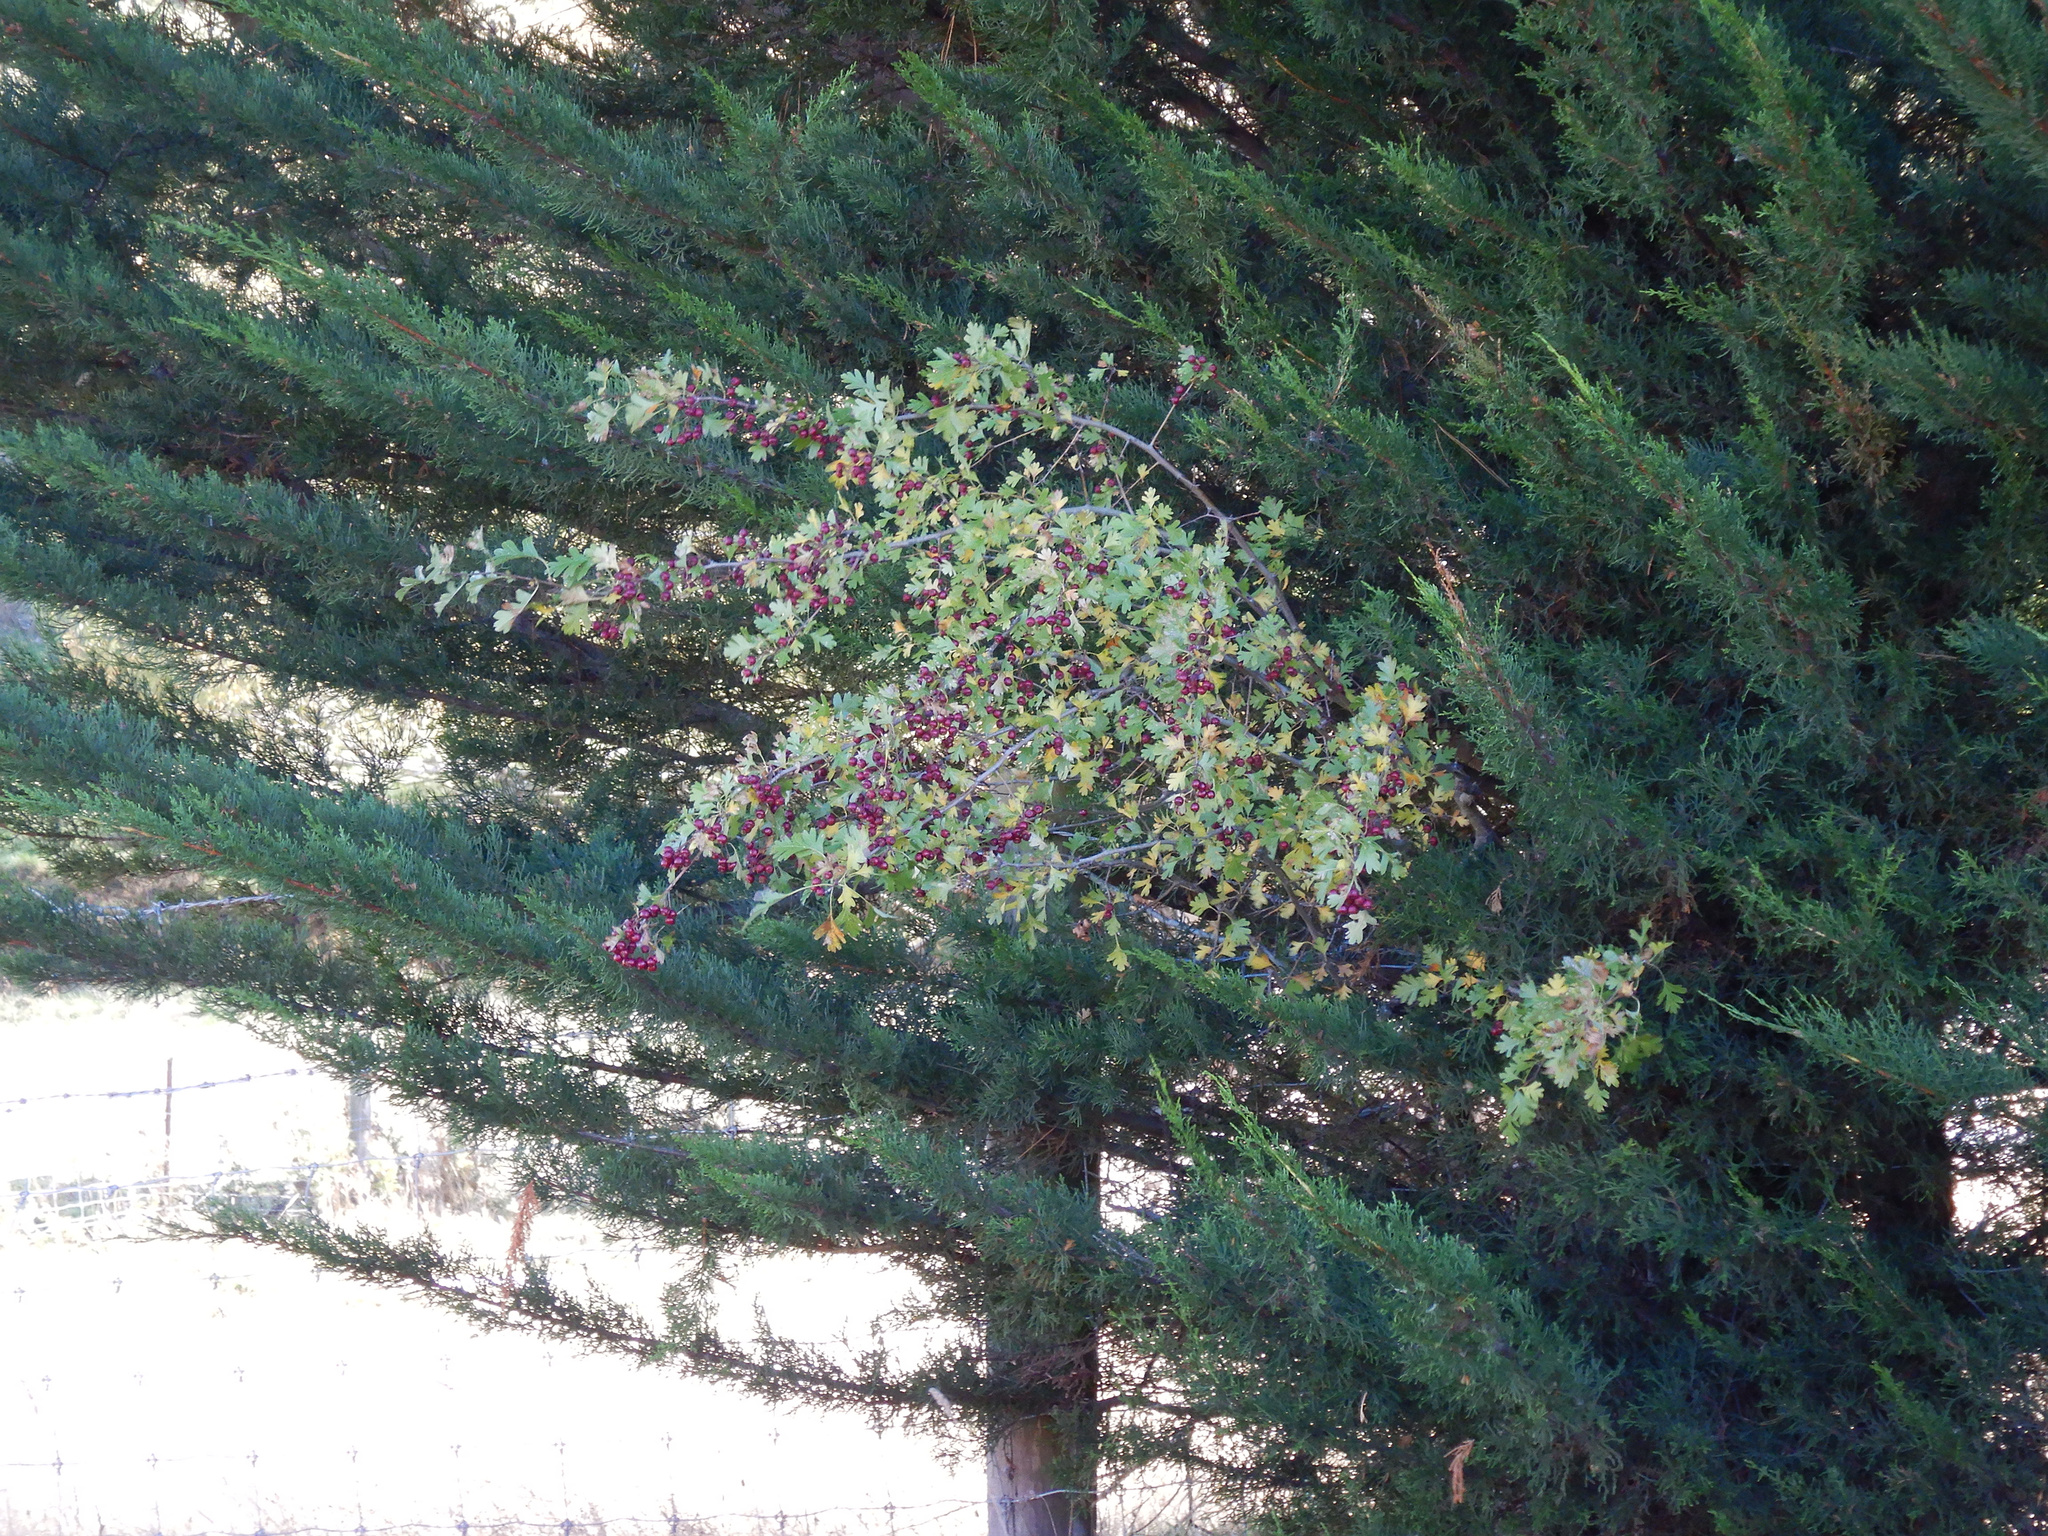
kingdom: Plantae
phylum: Tracheophyta
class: Magnoliopsida
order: Rosales
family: Rosaceae
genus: Crataegus
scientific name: Crataegus monogyna
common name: Hawthorn
